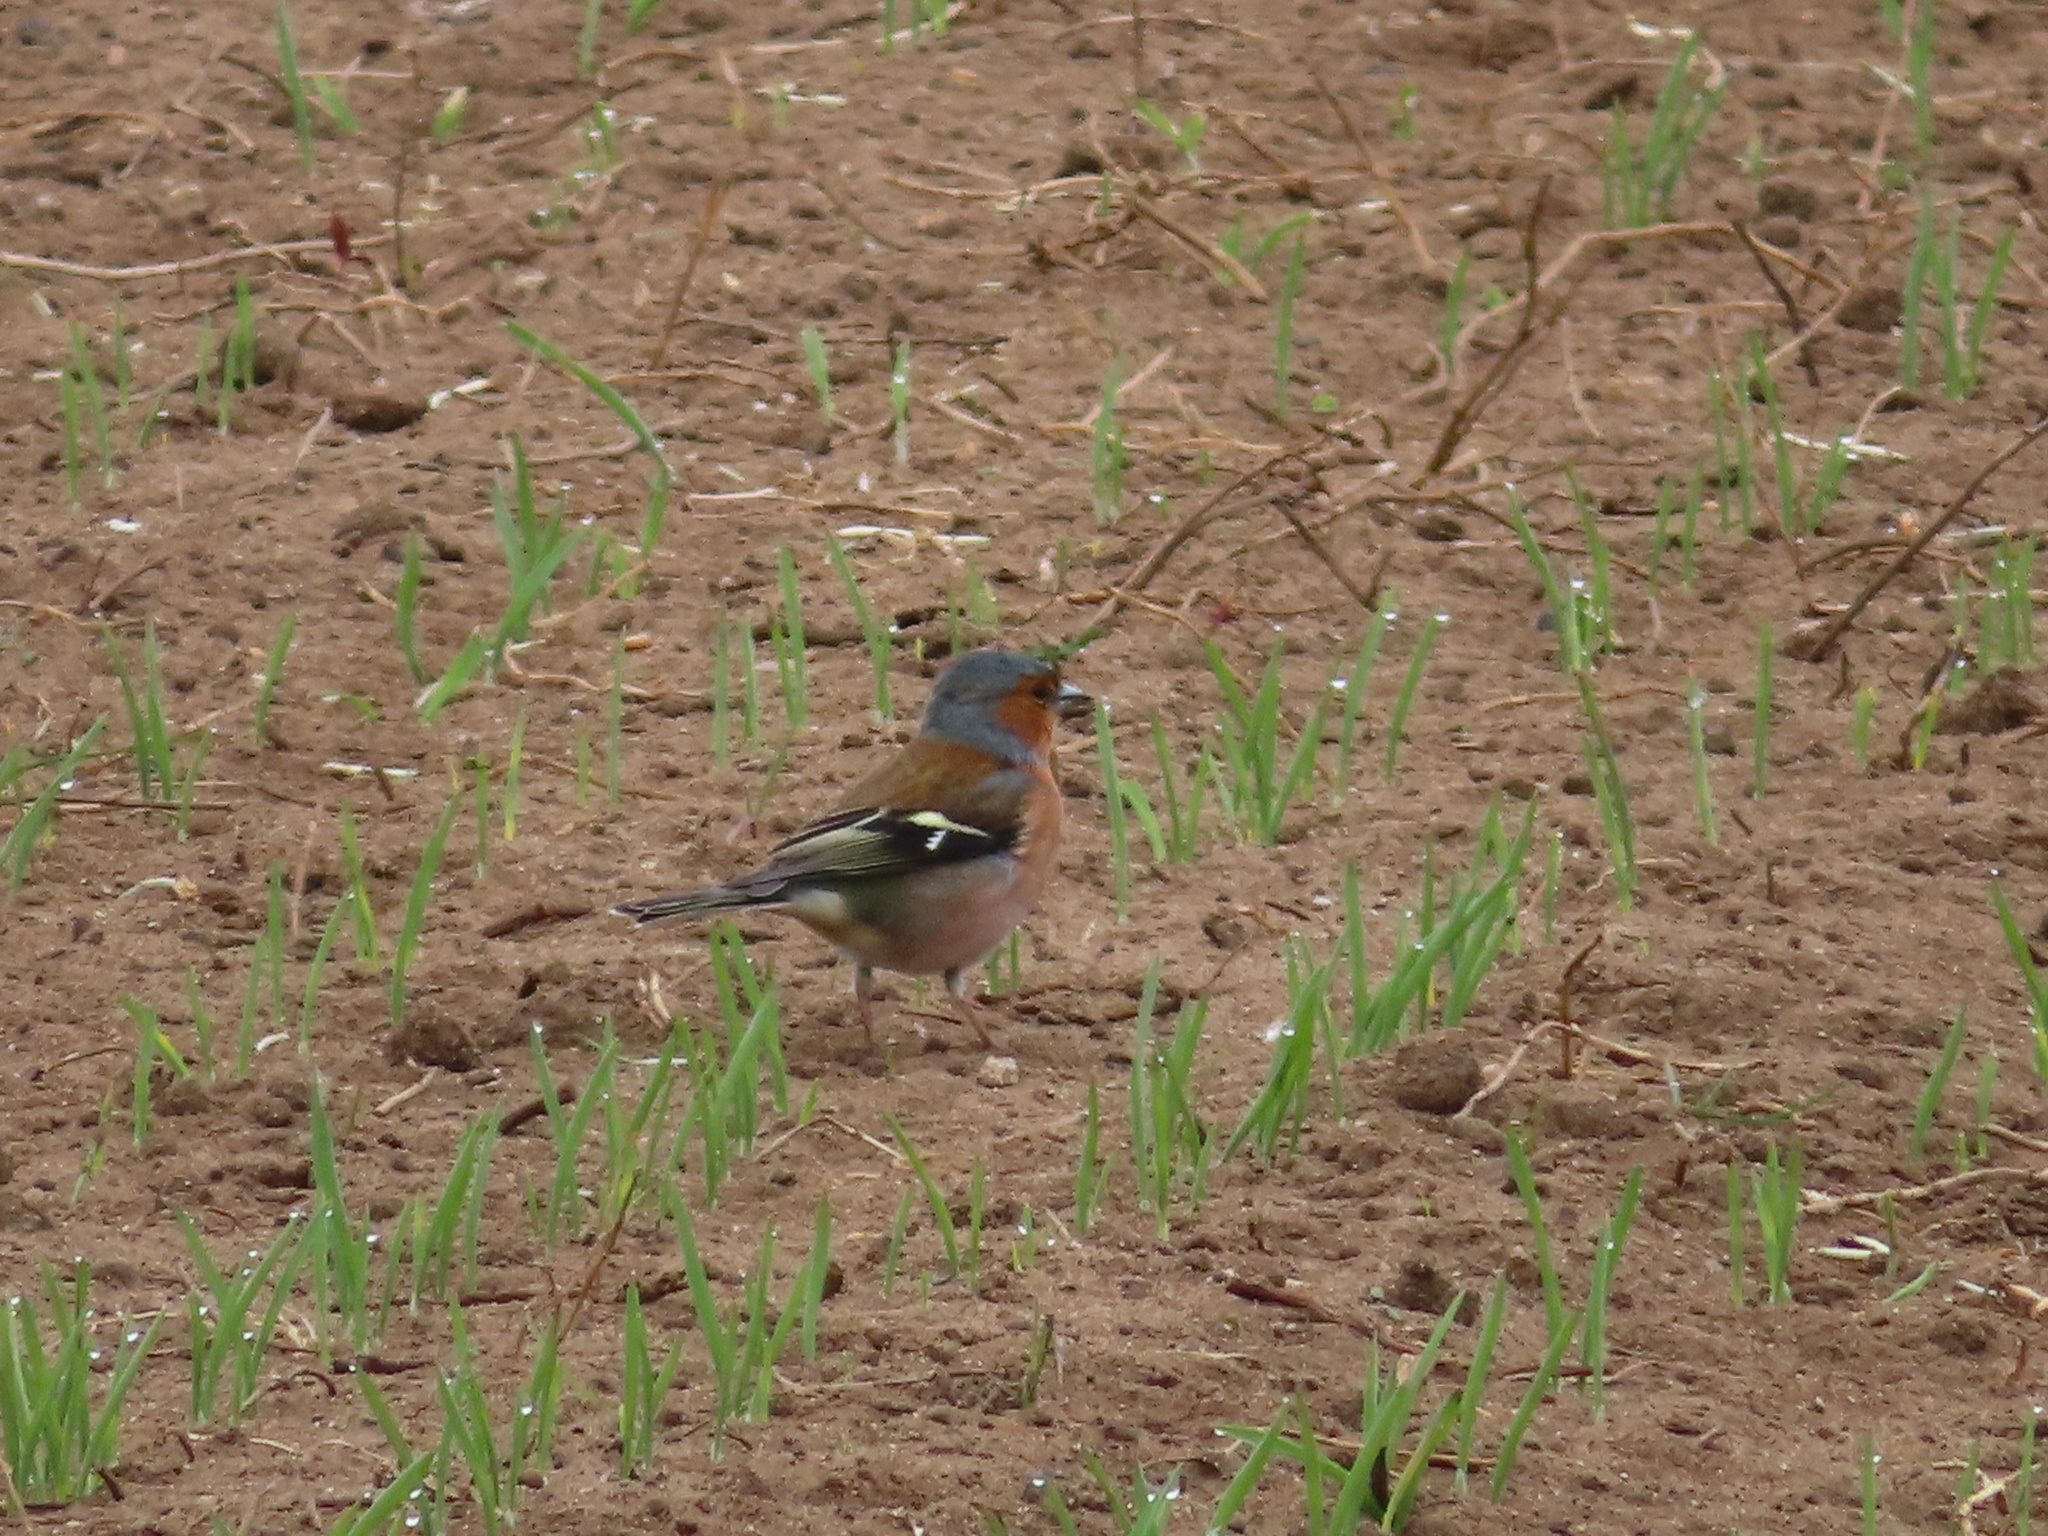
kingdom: Animalia
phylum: Chordata
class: Aves
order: Passeriformes
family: Fringillidae
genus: Fringilla
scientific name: Fringilla coelebs
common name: Common chaffinch
